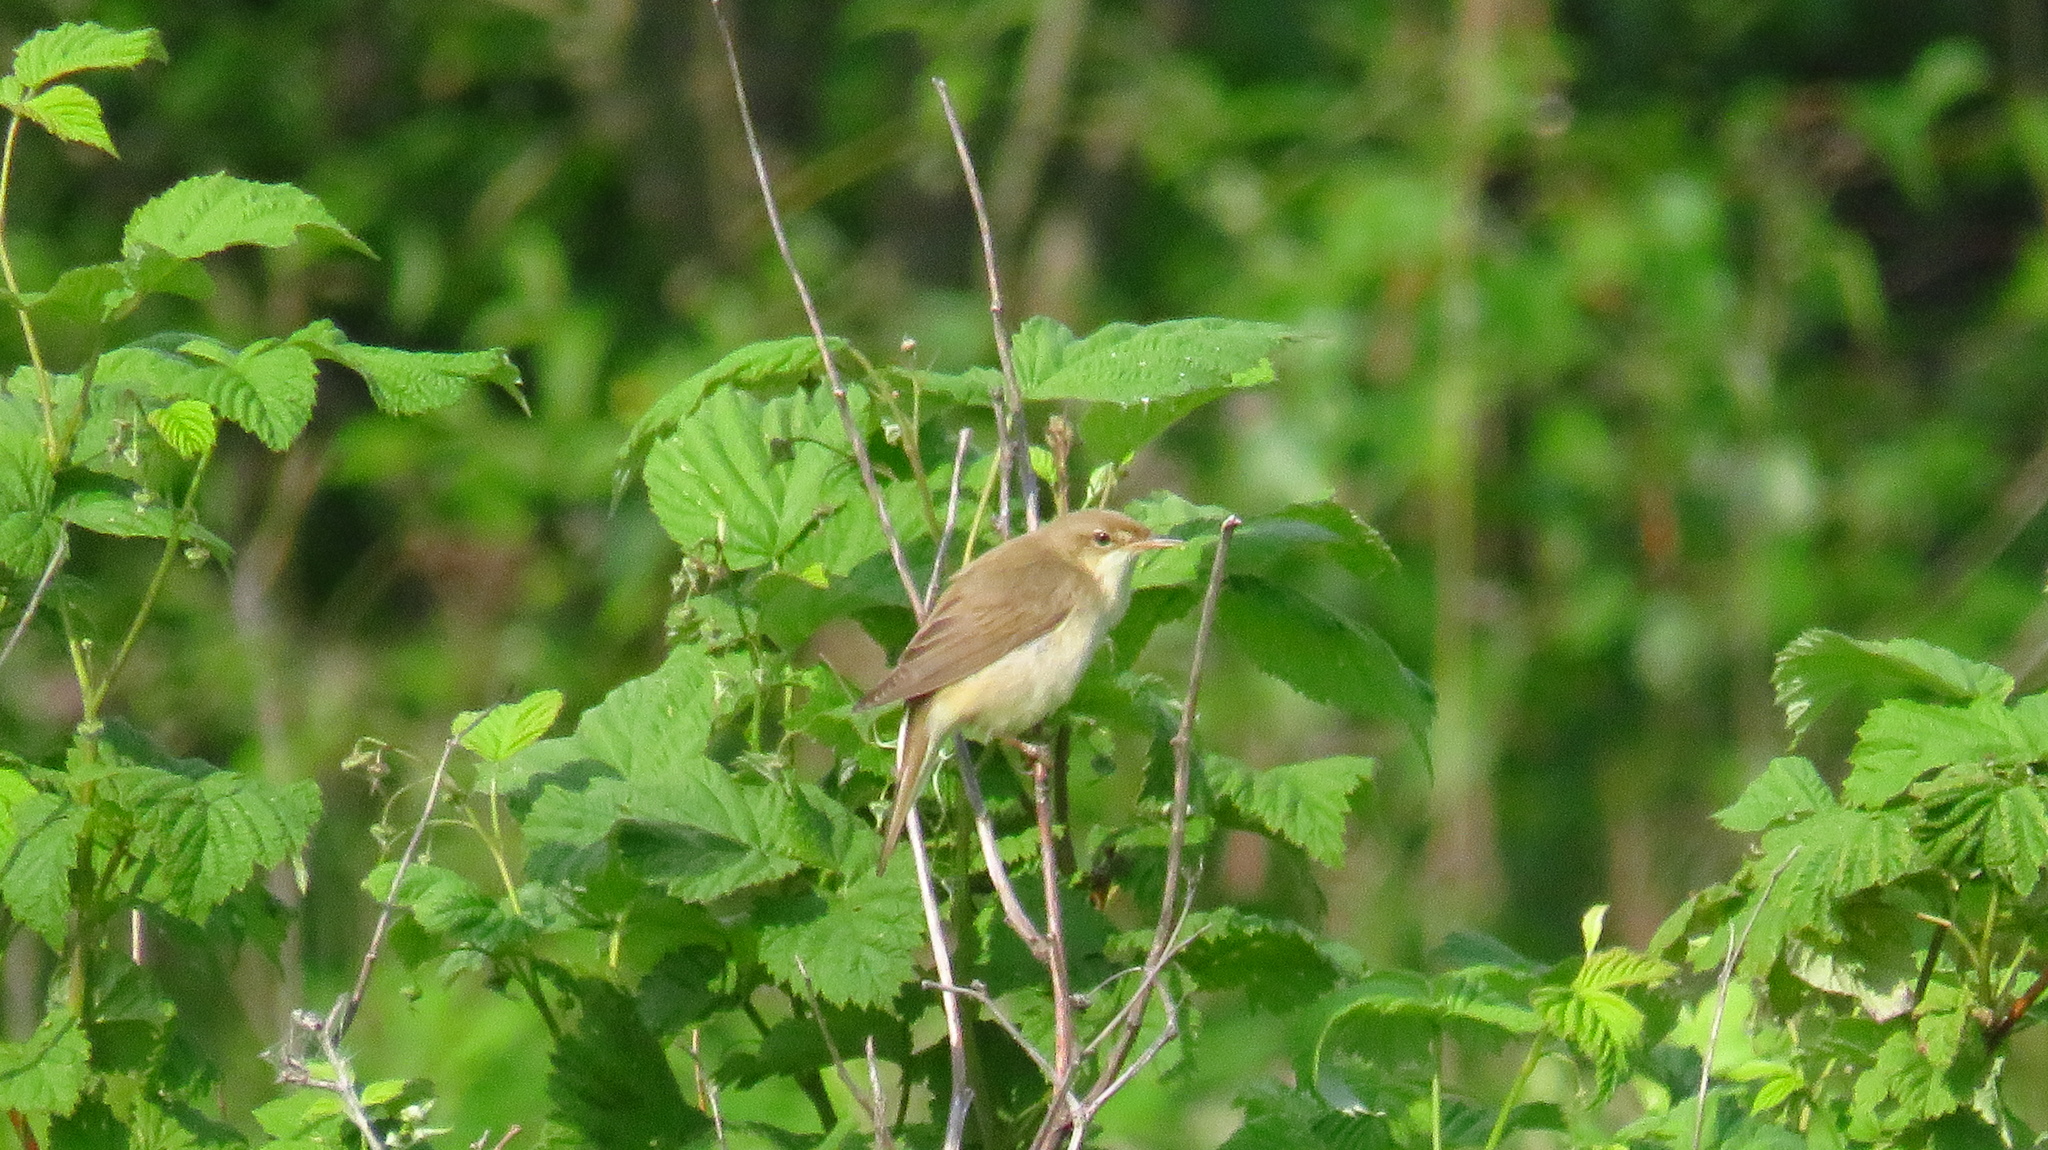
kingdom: Animalia
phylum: Chordata
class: Aves
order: Passeriformes
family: Acrocephalidae
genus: Acrocephalus
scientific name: Acrocephalus palustris
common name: Marsh warbler
